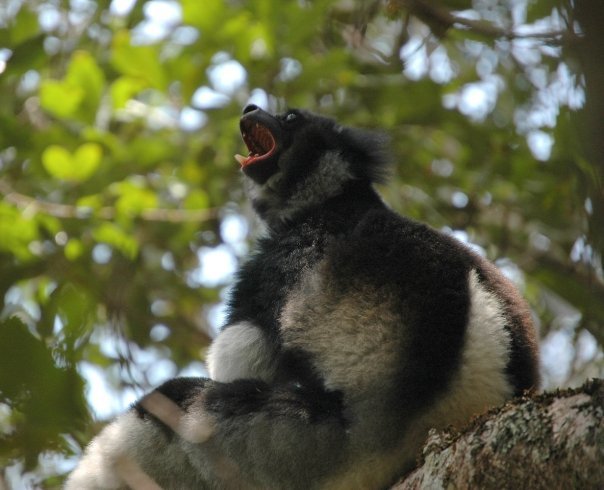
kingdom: Animalia
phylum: Chordata
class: Mammalia
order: Primates
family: Indriidae
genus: Indri
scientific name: Indri indri
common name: Indri
